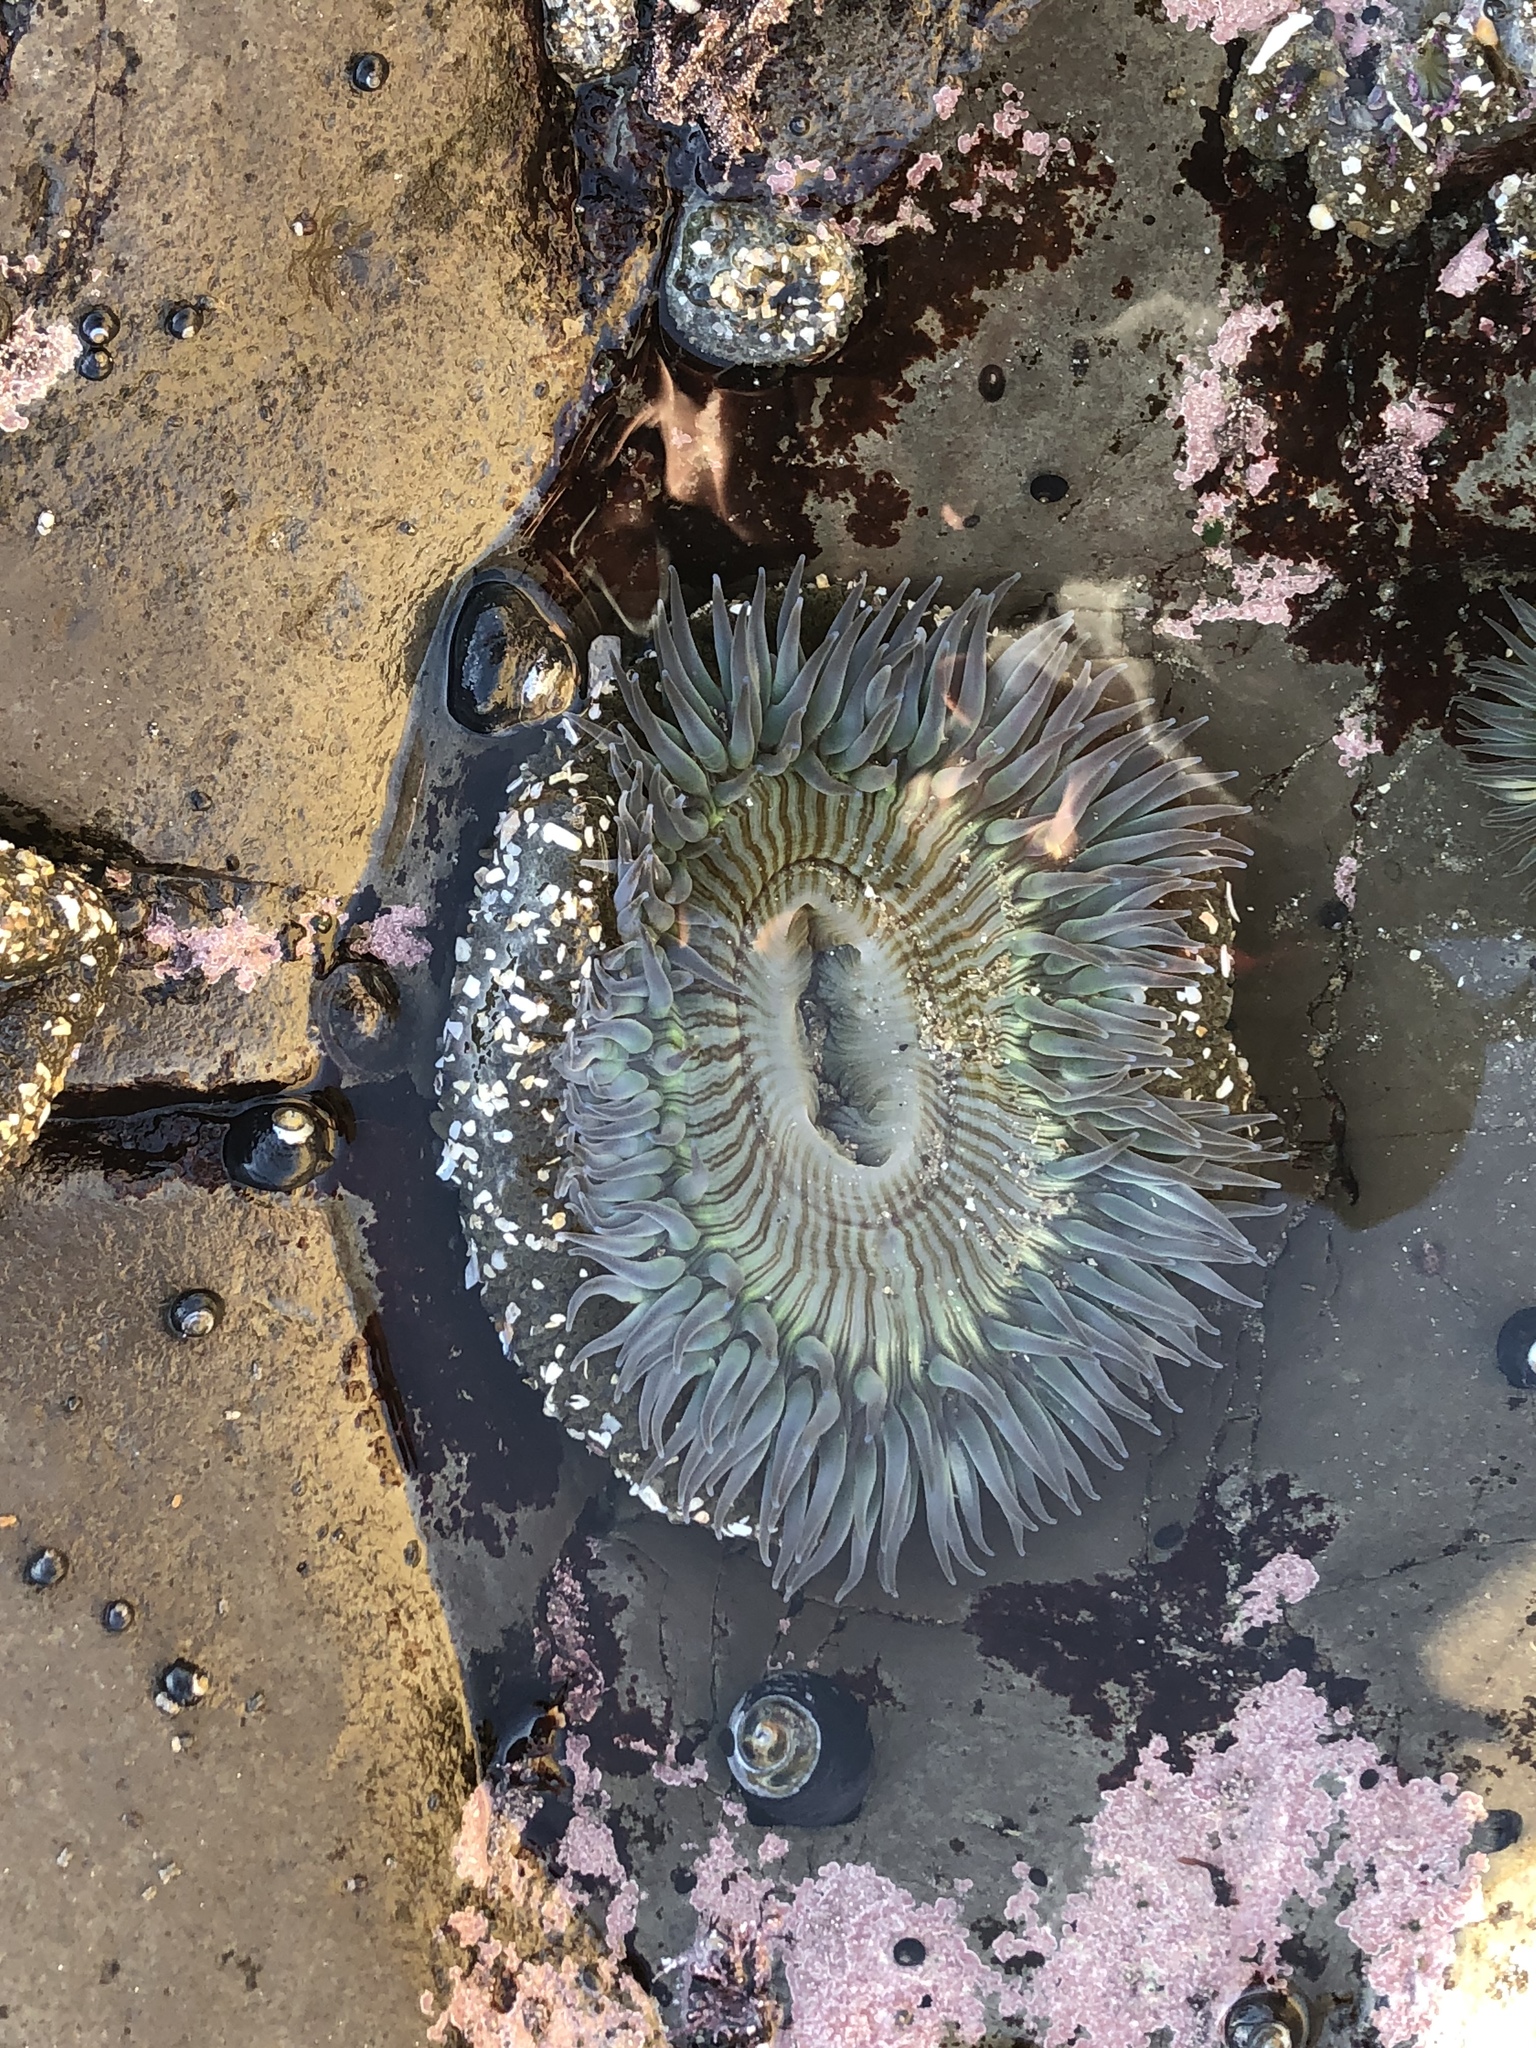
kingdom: Animalia
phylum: Cnidaria
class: Anthozoa
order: Actiniaria
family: Actiniidae
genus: Anthopleura
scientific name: Anthopleura sola
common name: Sun anemone
